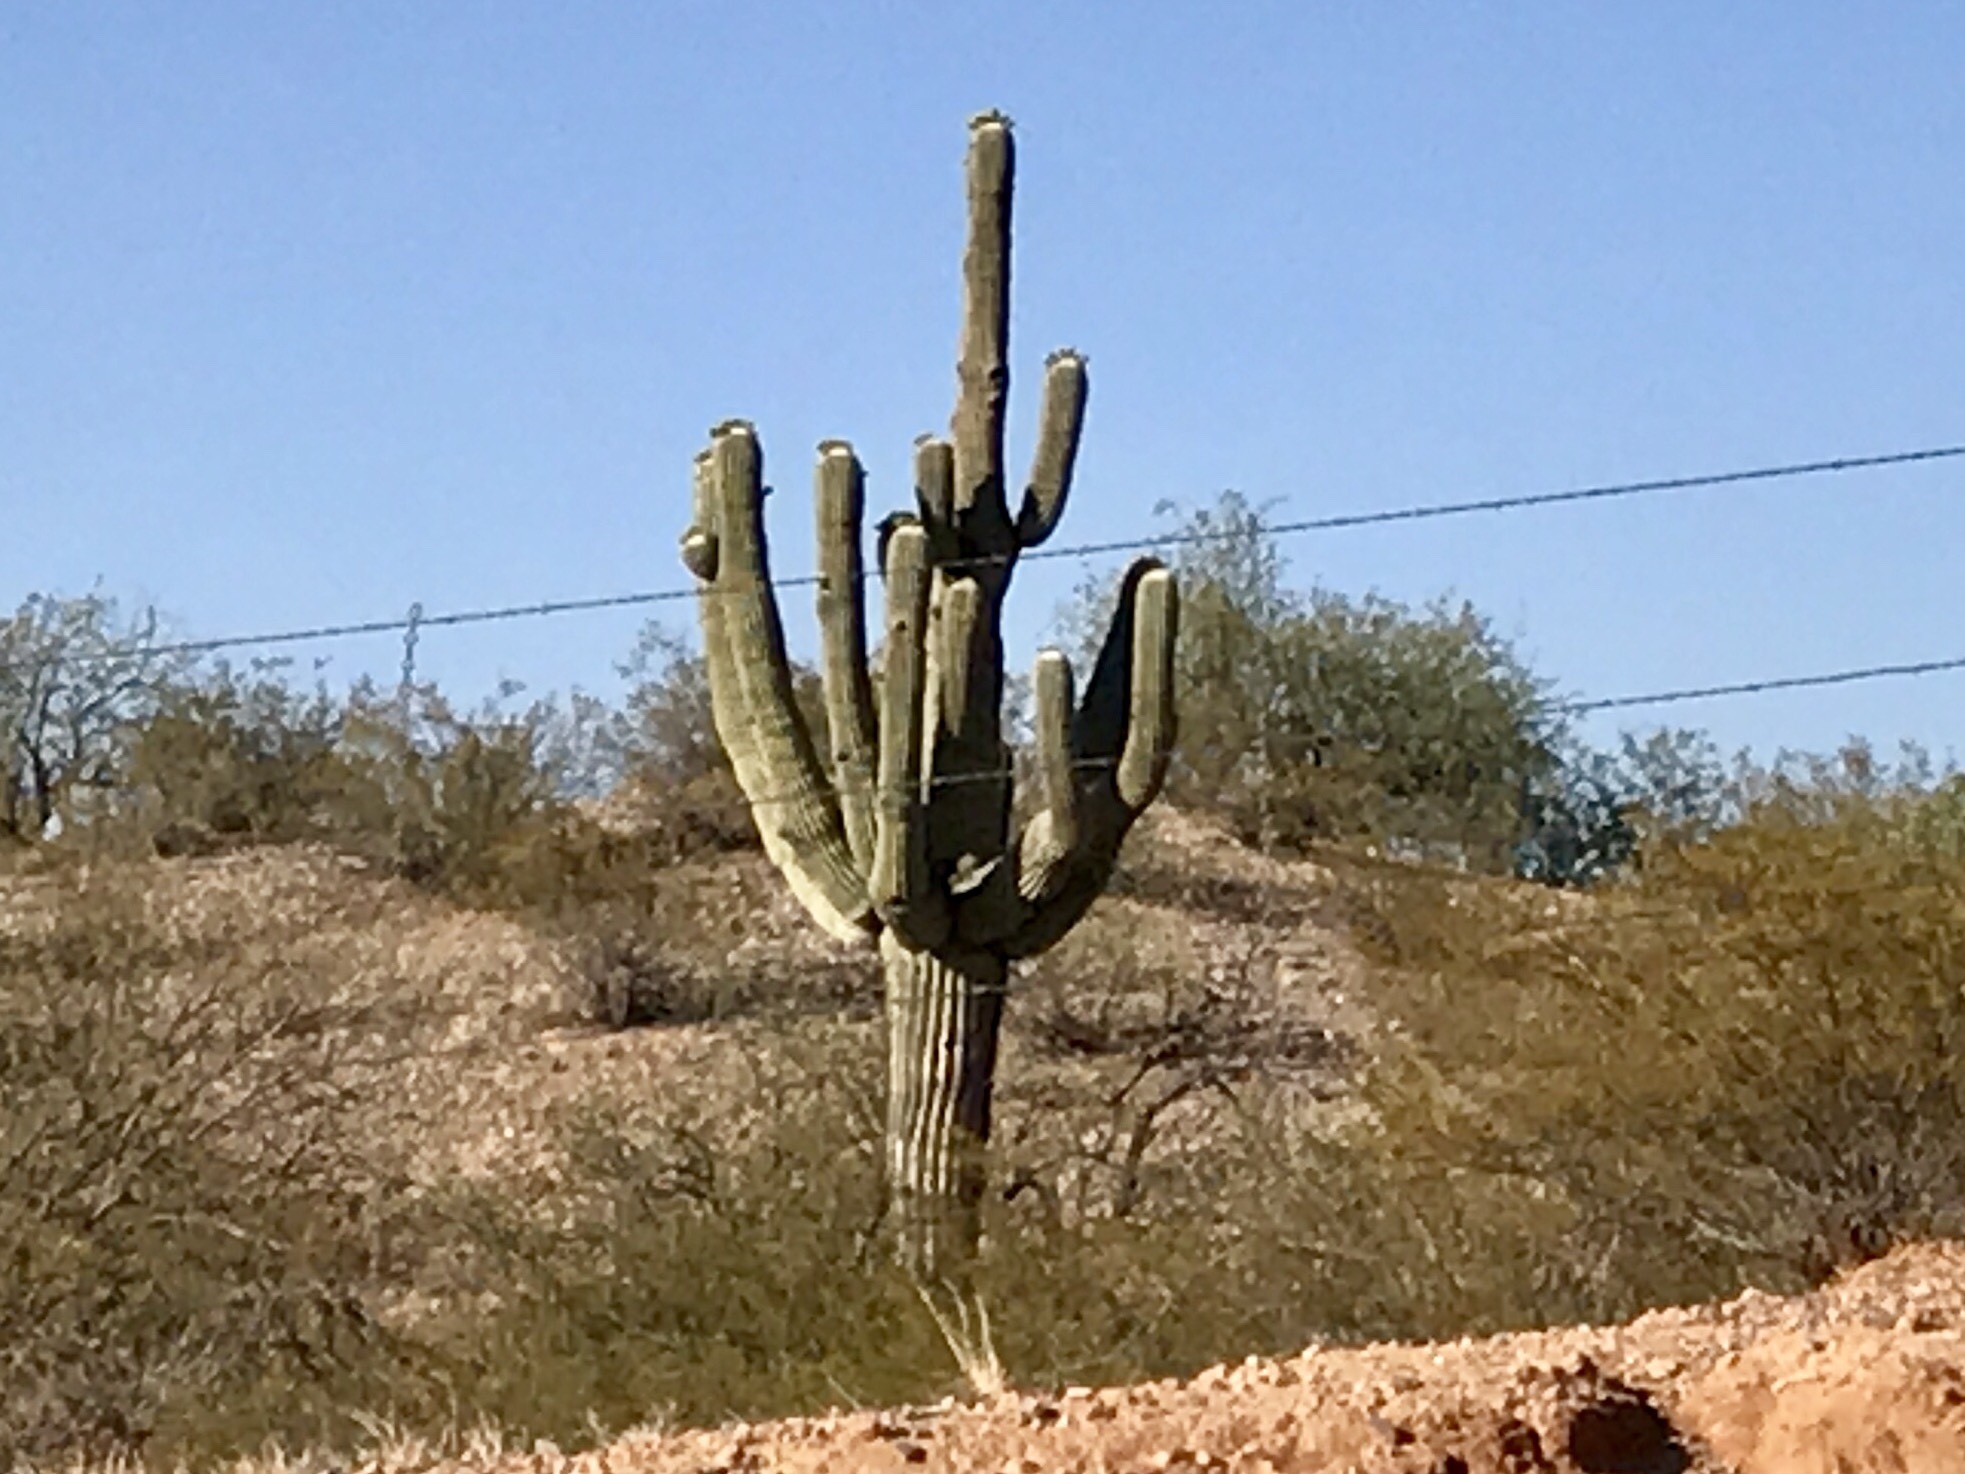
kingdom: Plantae
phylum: Tracheophyta
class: Magnoliopsida
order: Caryophyllales
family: Cactaceae
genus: Carnegiea
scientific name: Carnegiea gigantea
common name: Saguaro
